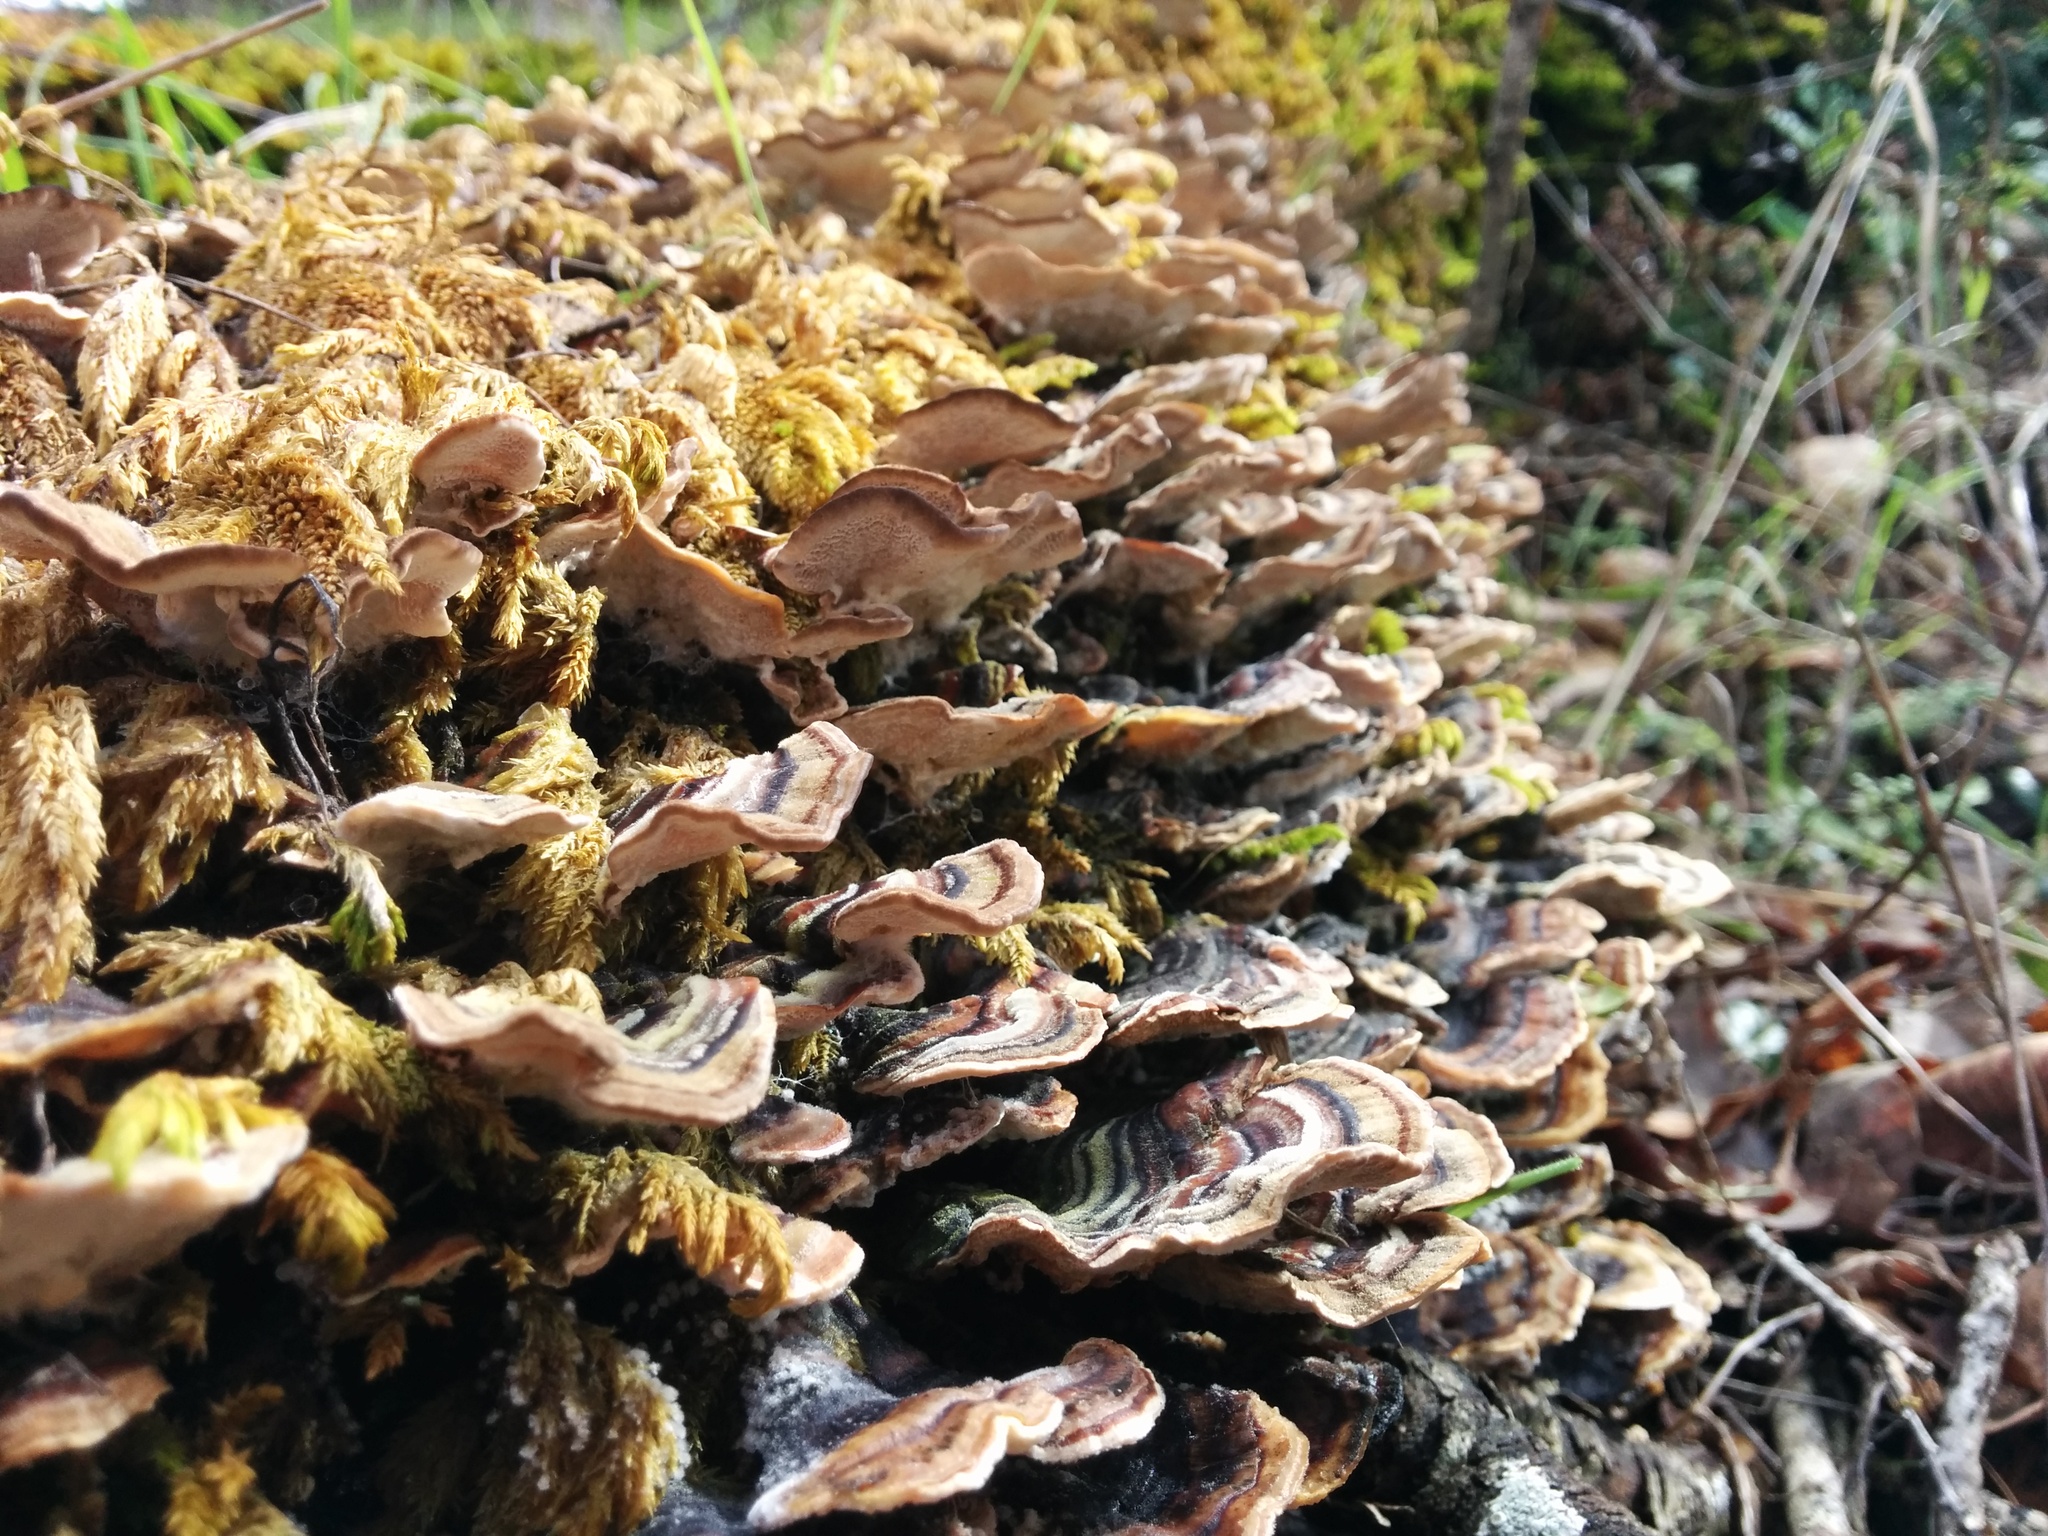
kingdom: Fungi
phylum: Basidiomycota
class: Agaricomycetes
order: Polyporales
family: Polyporaceae
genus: Trametes
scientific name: Trametes versicolor
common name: Turkeytail
